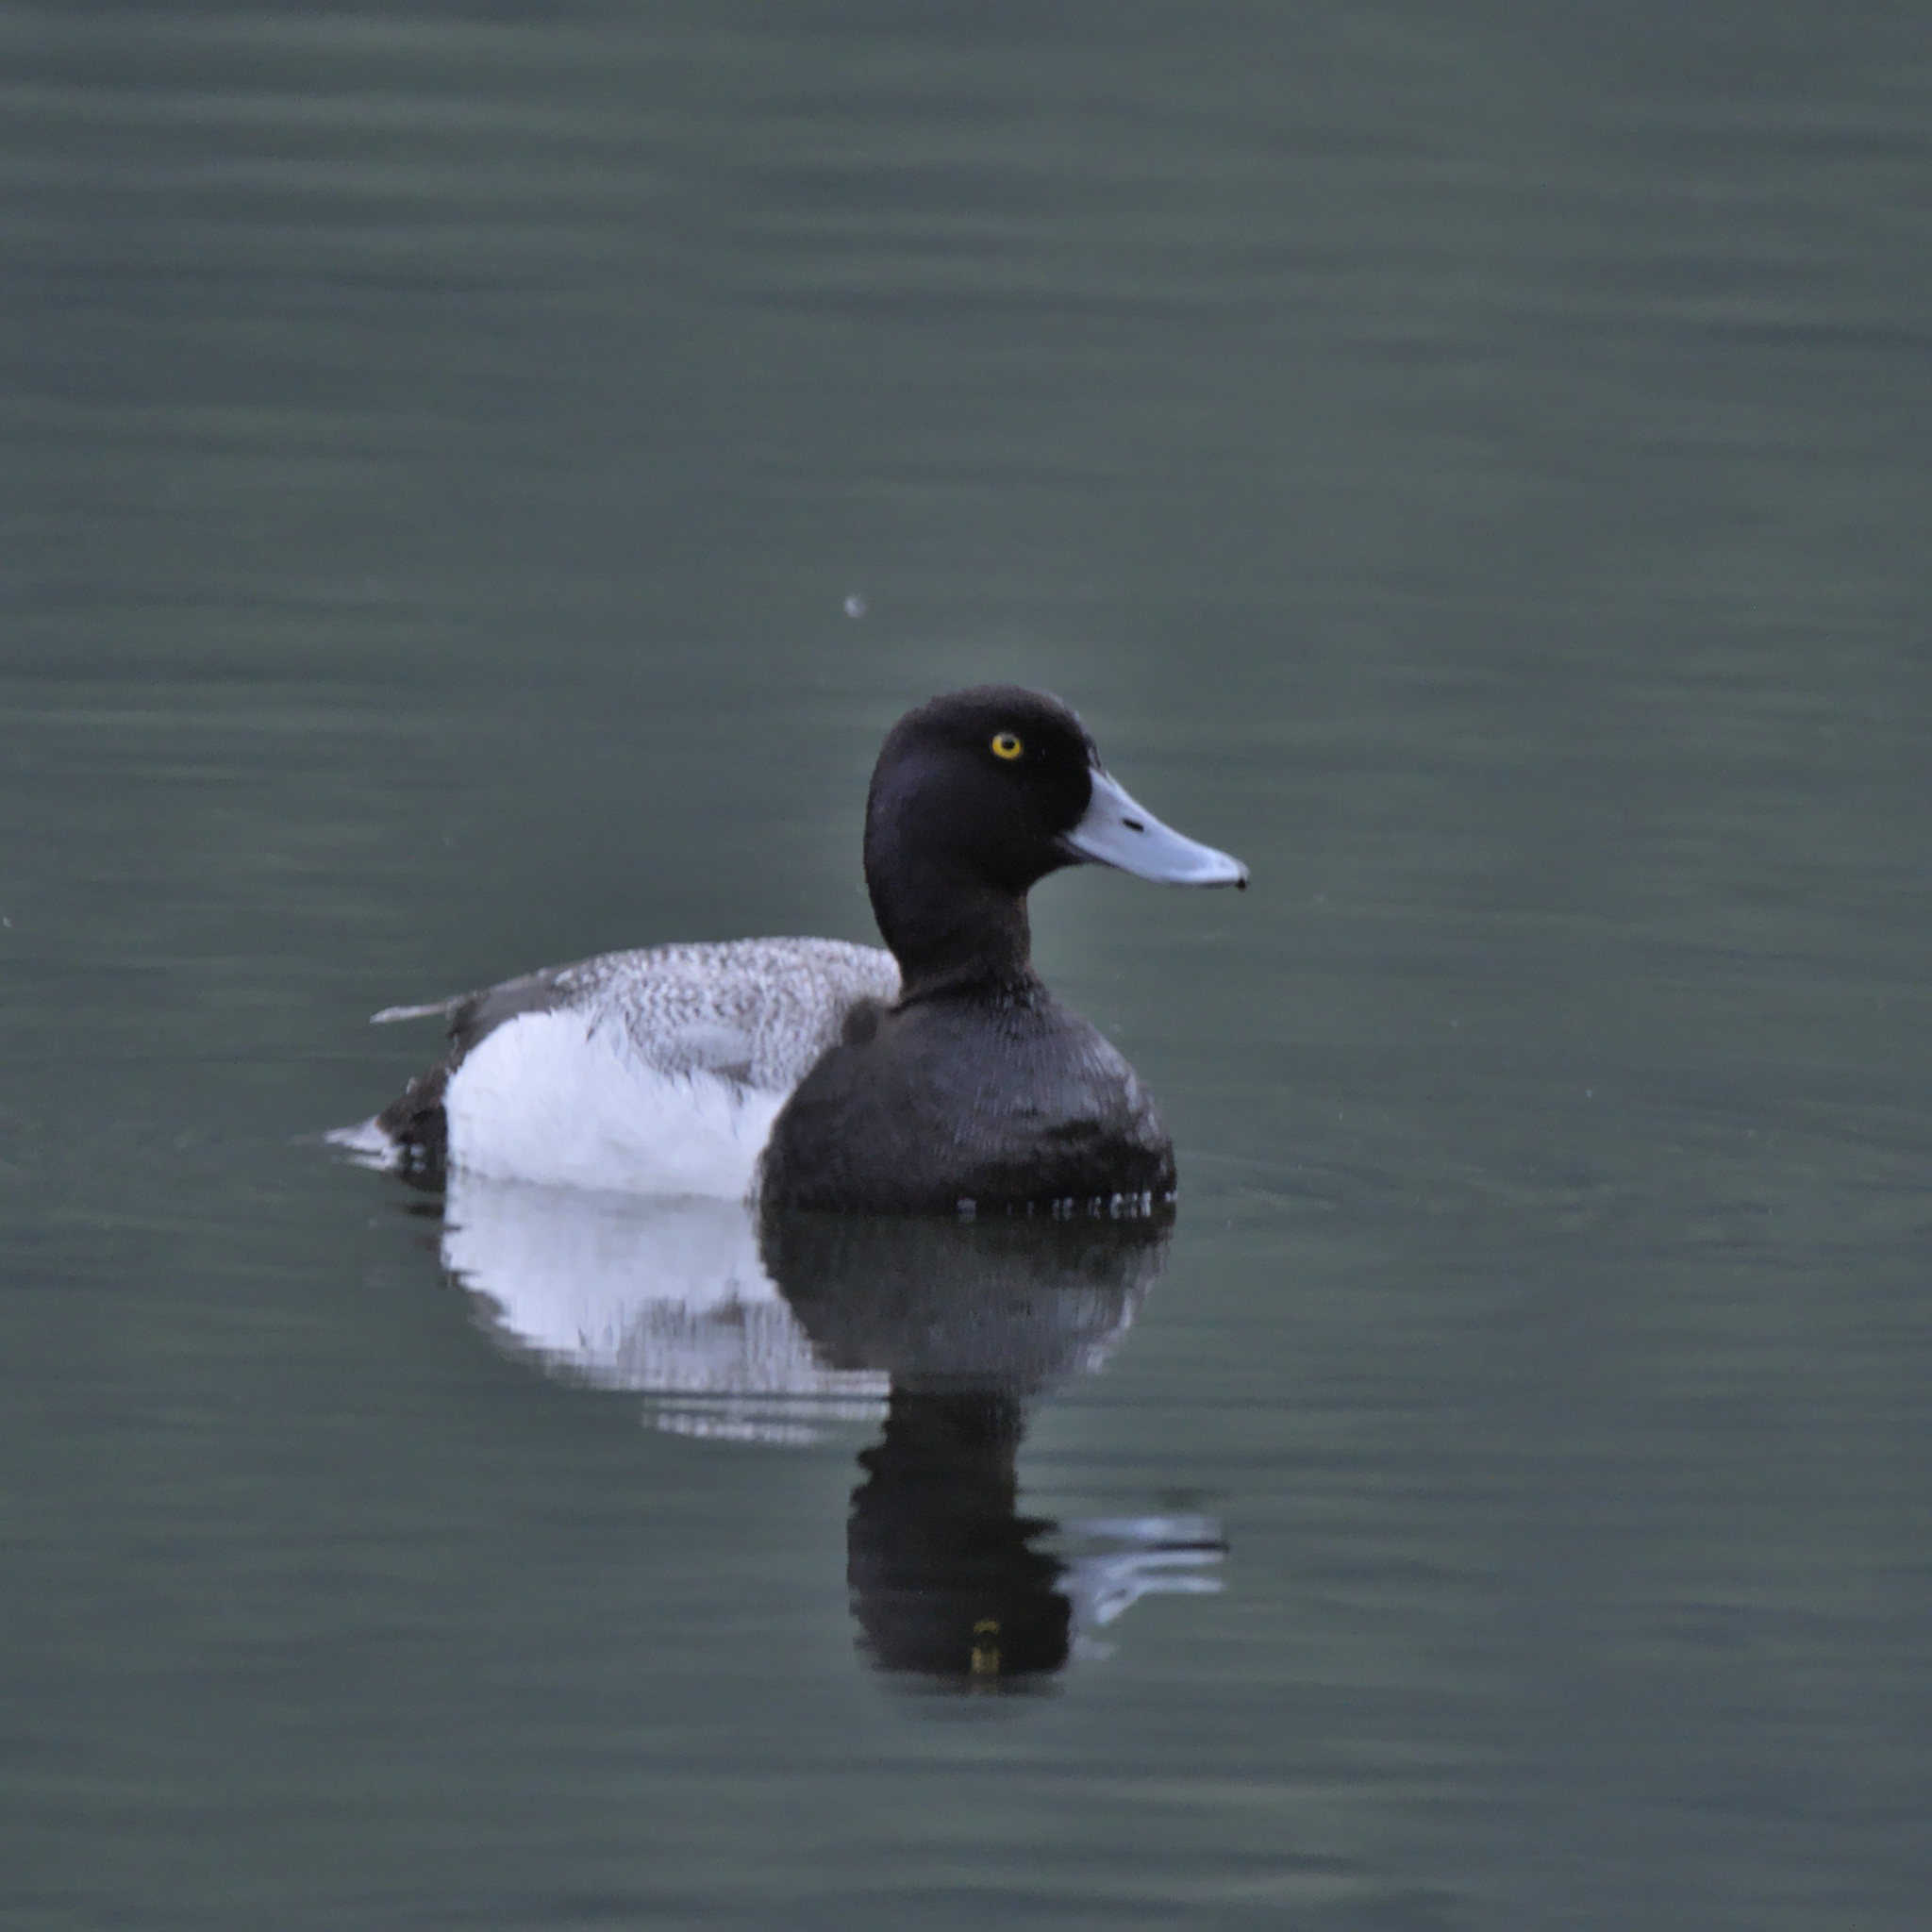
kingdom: Animalia
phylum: Chordata
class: Aves
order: Anseriformes
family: Anatidae
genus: Aythya
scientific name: Aythya marila
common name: Greater scaup
